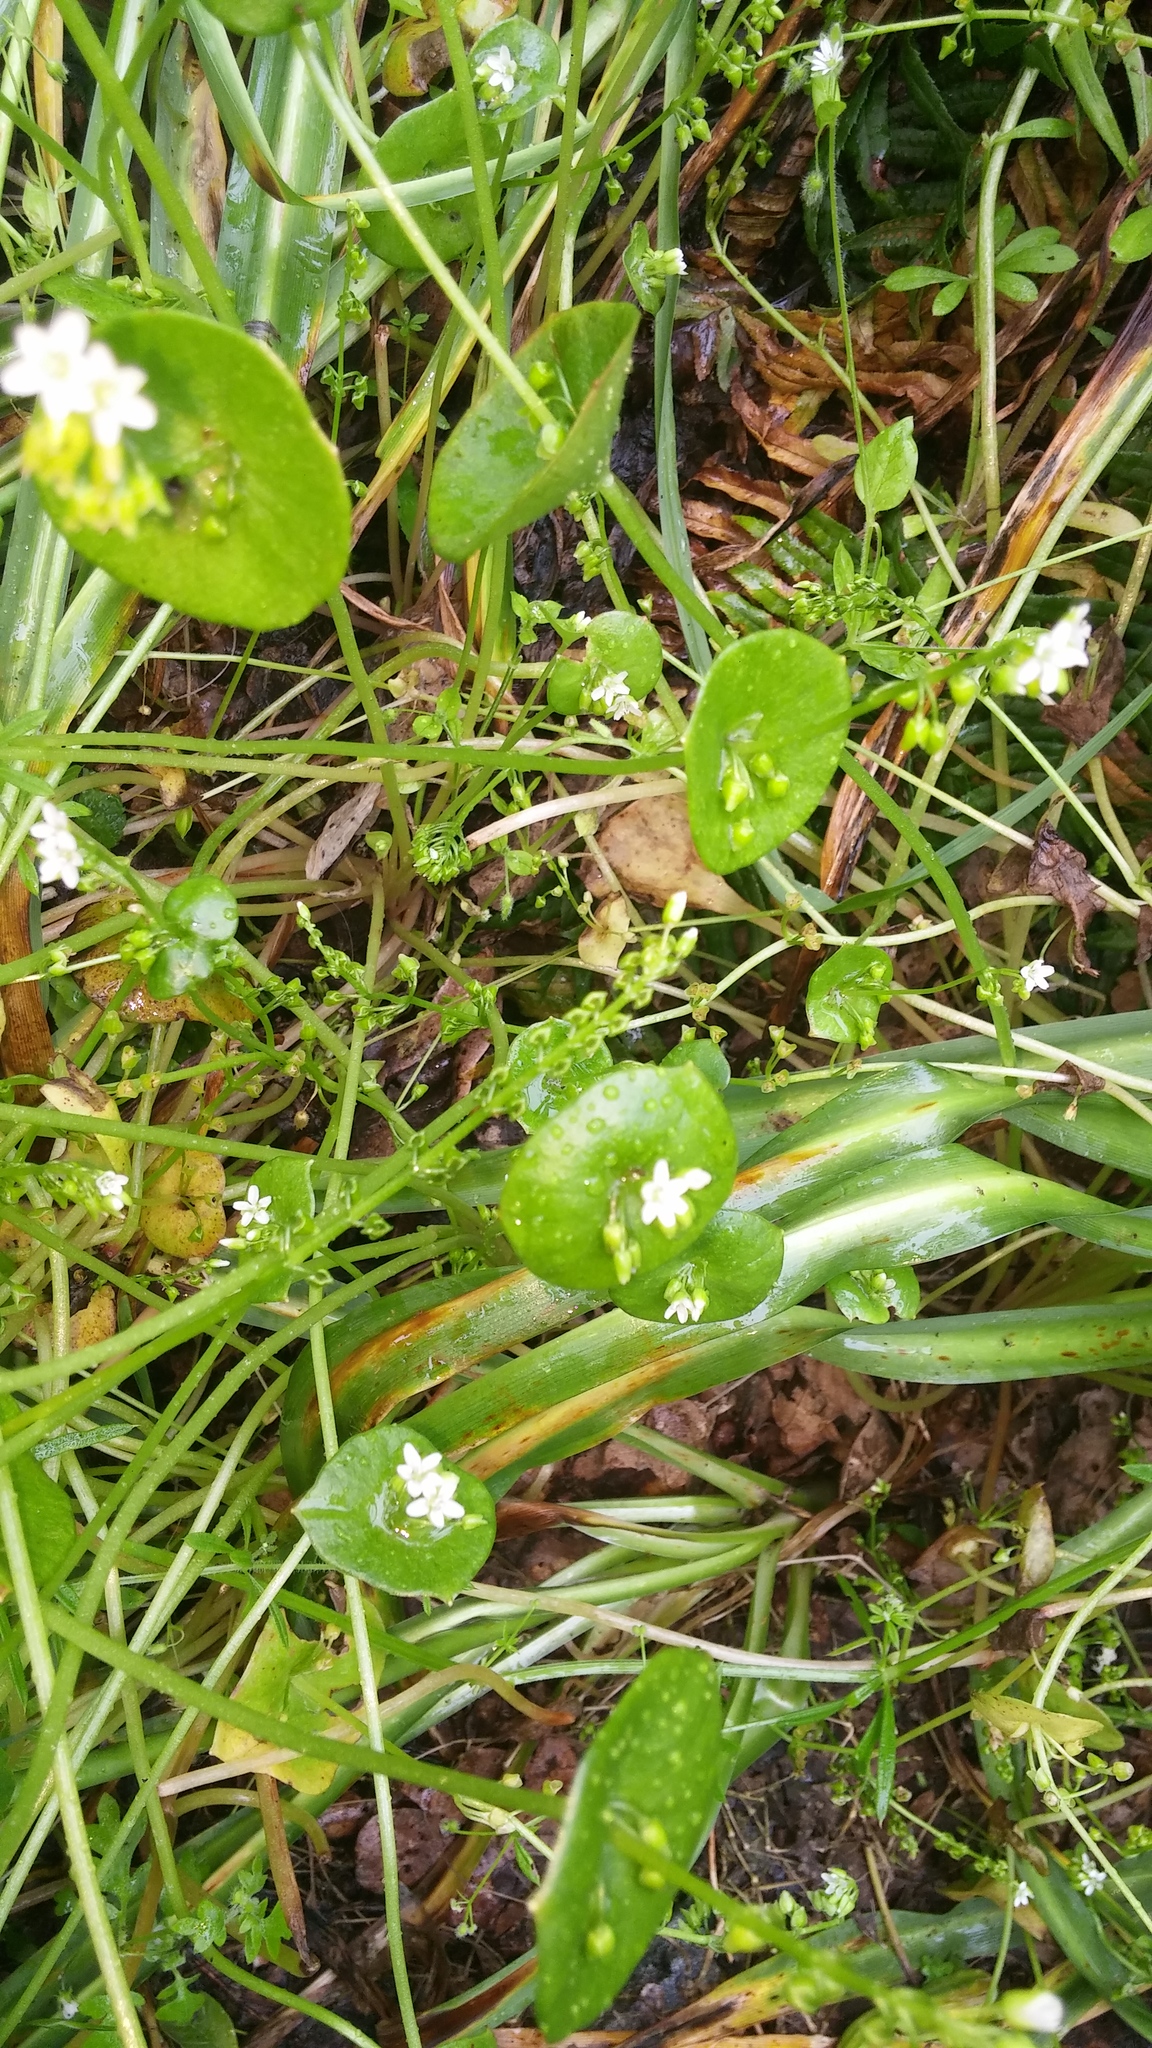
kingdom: Plantae
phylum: Tracheophyta
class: Magnoliopsida
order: Caryophyllales
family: Montiaceae
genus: Claytonia
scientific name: Claytonia perfoliata
